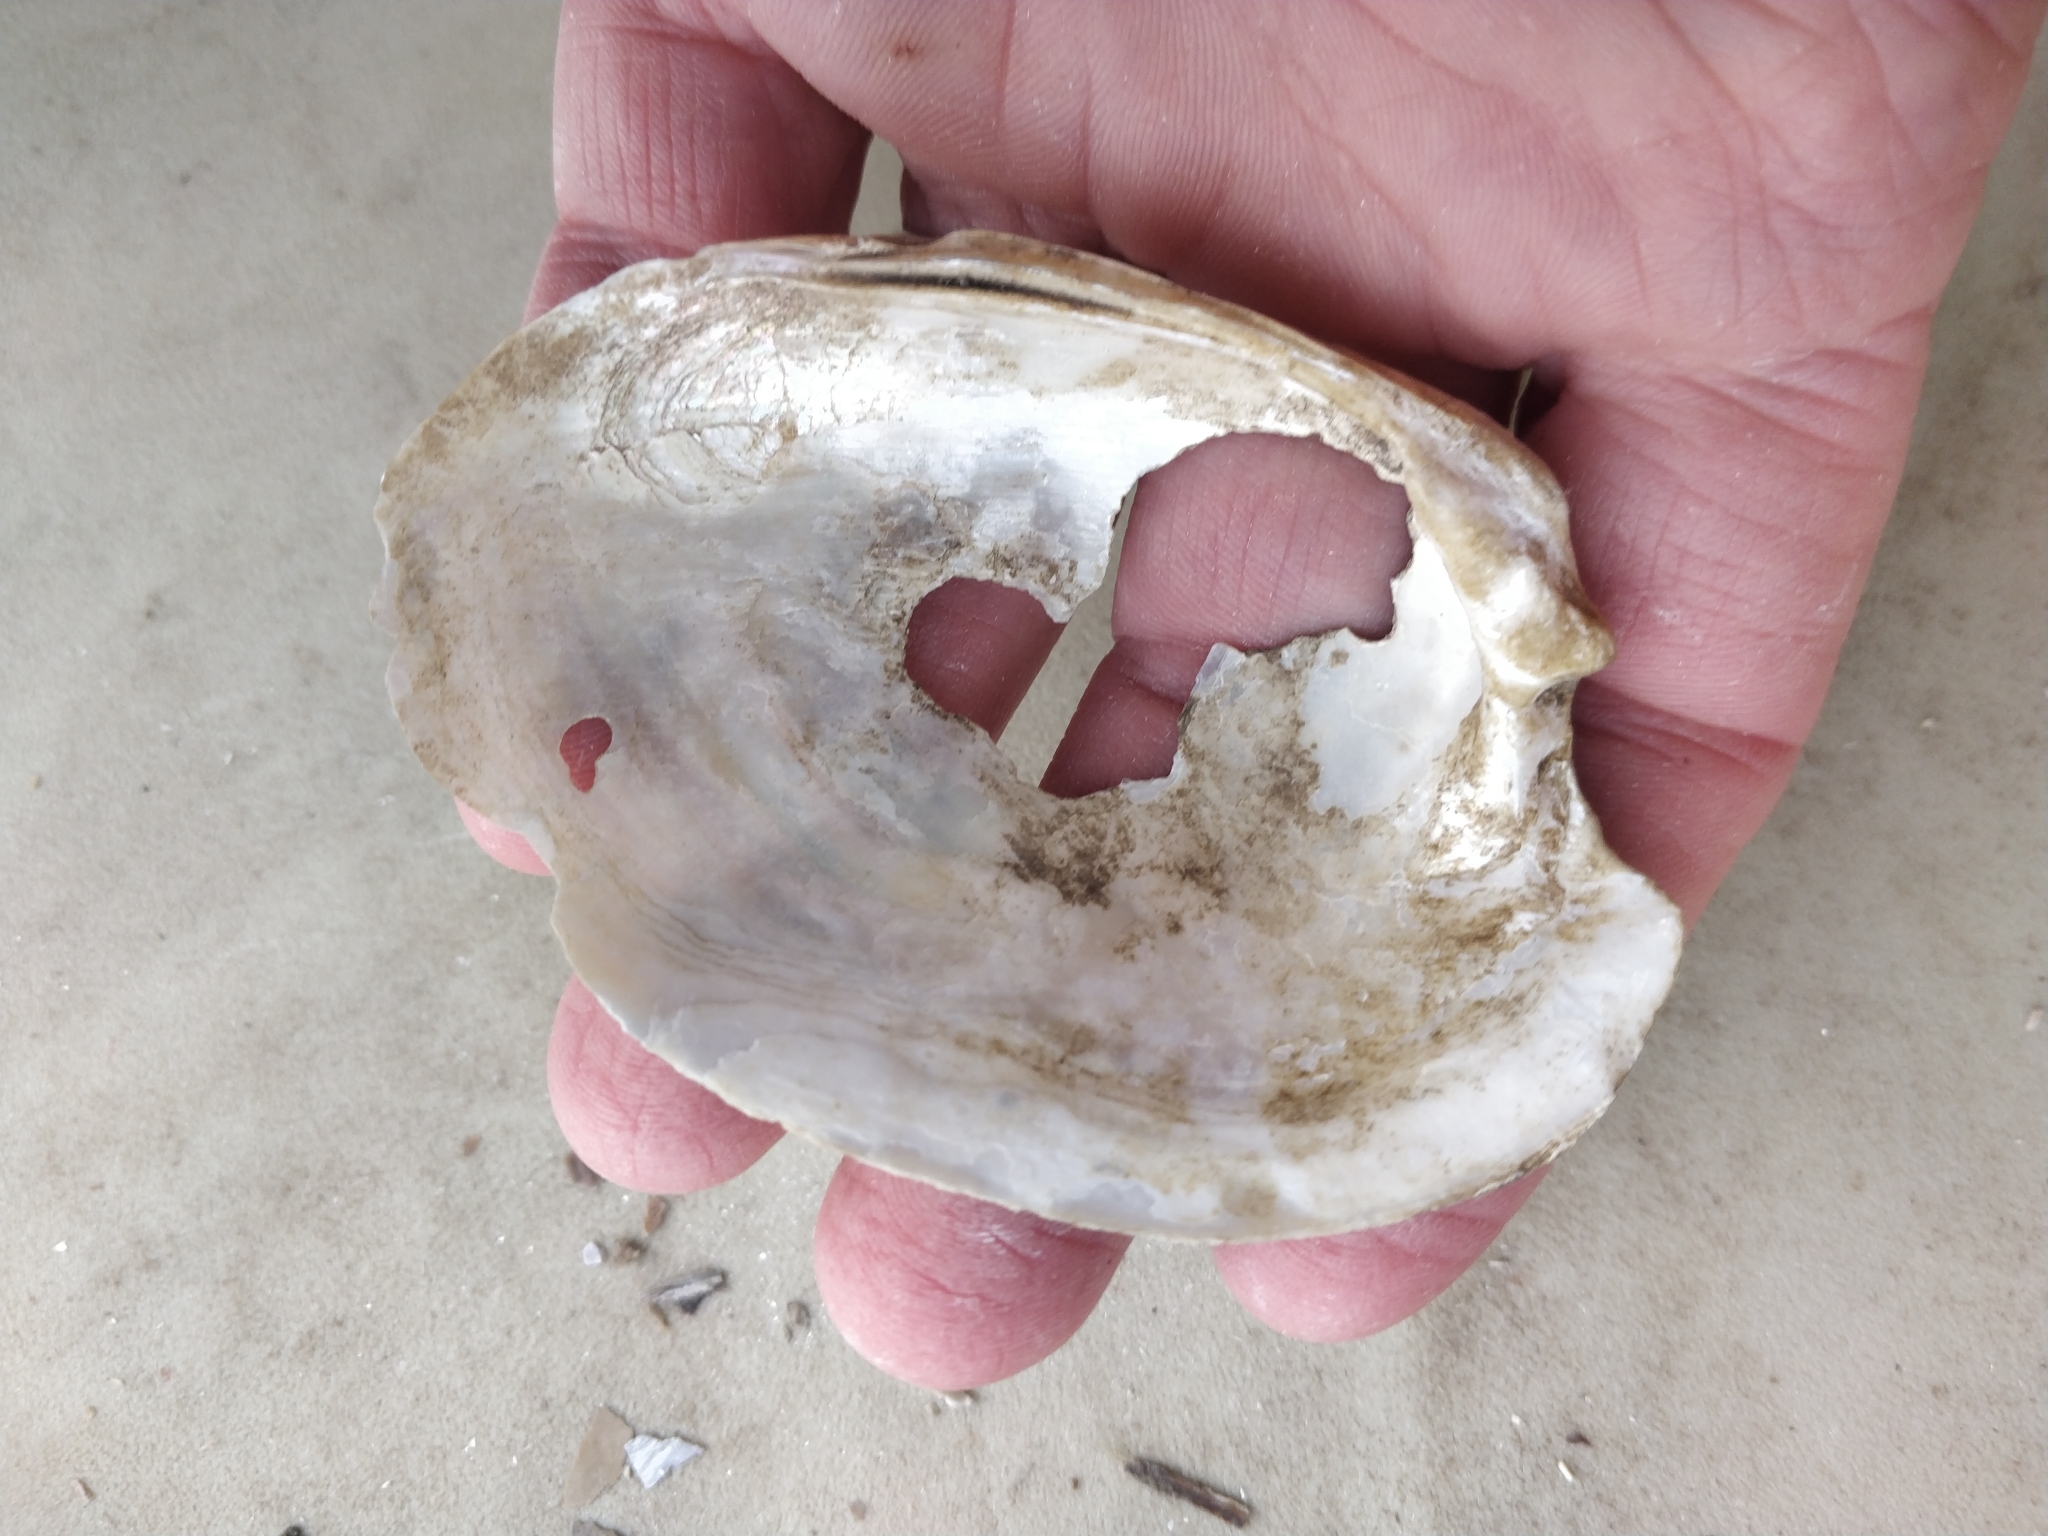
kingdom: Animalia
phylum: Mollusca
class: Bivalvia
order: Unionida
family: Unionidae
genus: Lampsilis
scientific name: Lampsilis cardium
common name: Plain pocketbook
